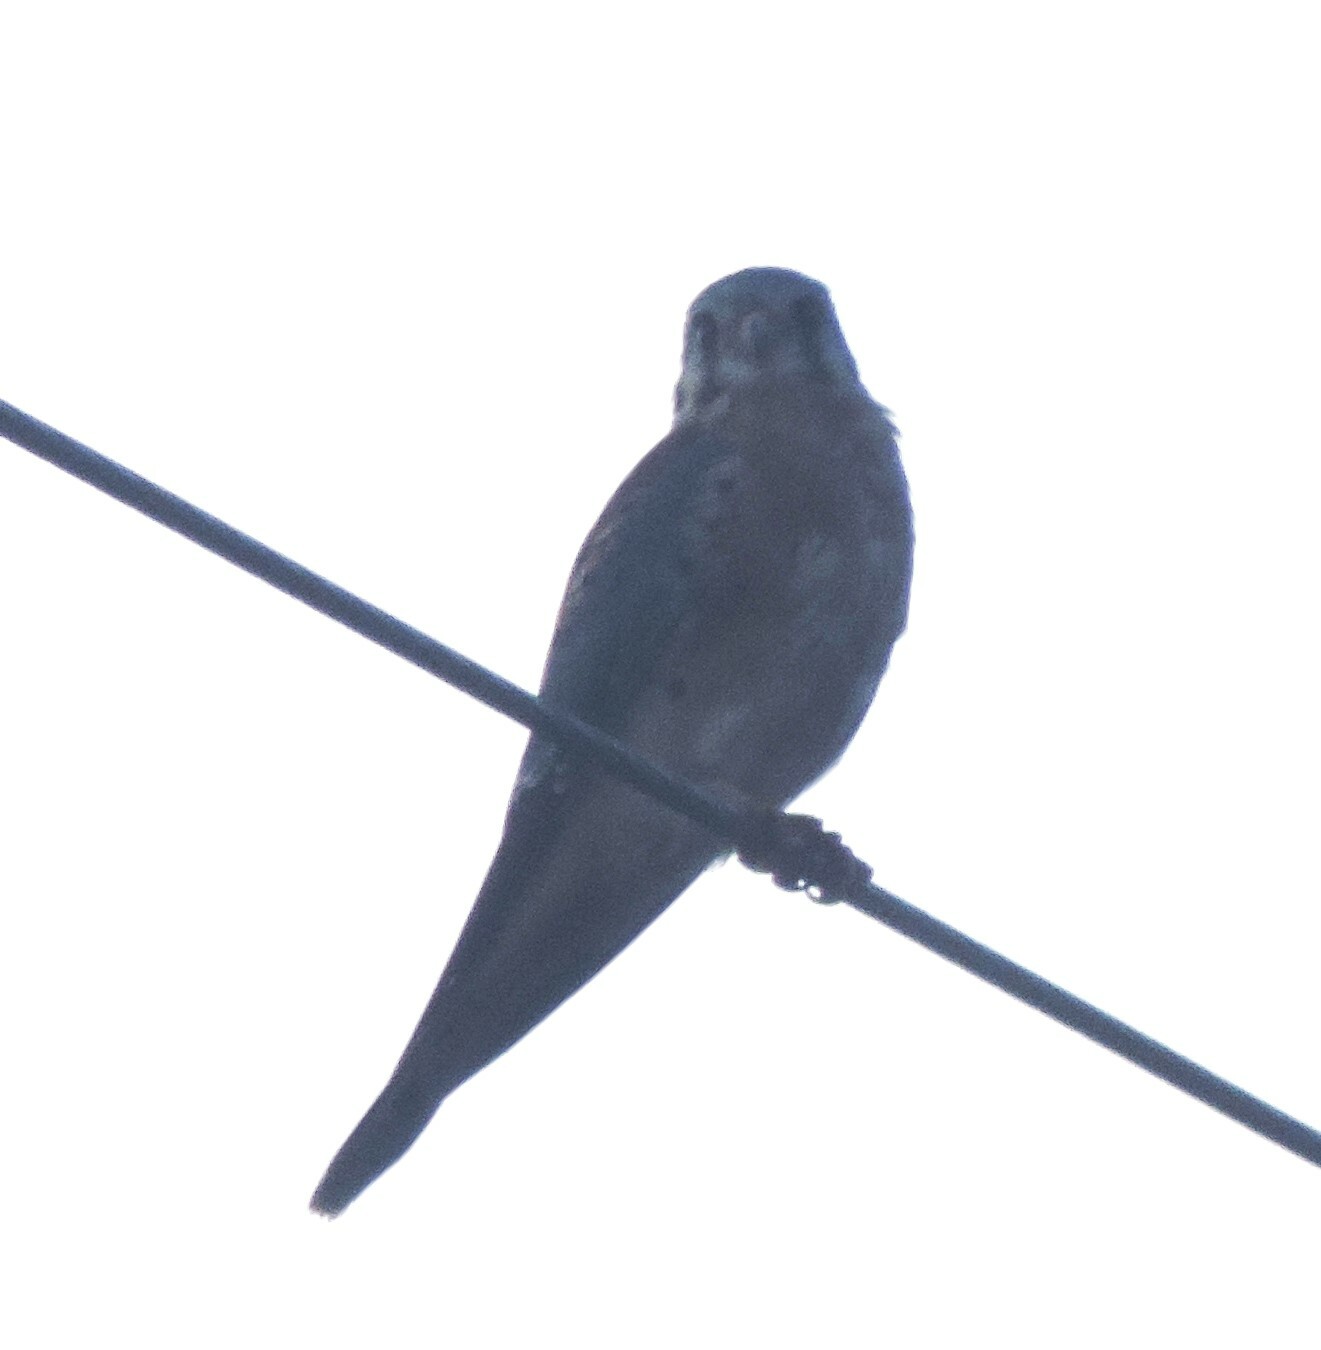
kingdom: Animalia
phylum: Chordata
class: Aves
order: Falconiformes
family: Falconidae
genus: Falco
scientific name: Falco sparverius
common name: American kestrel
